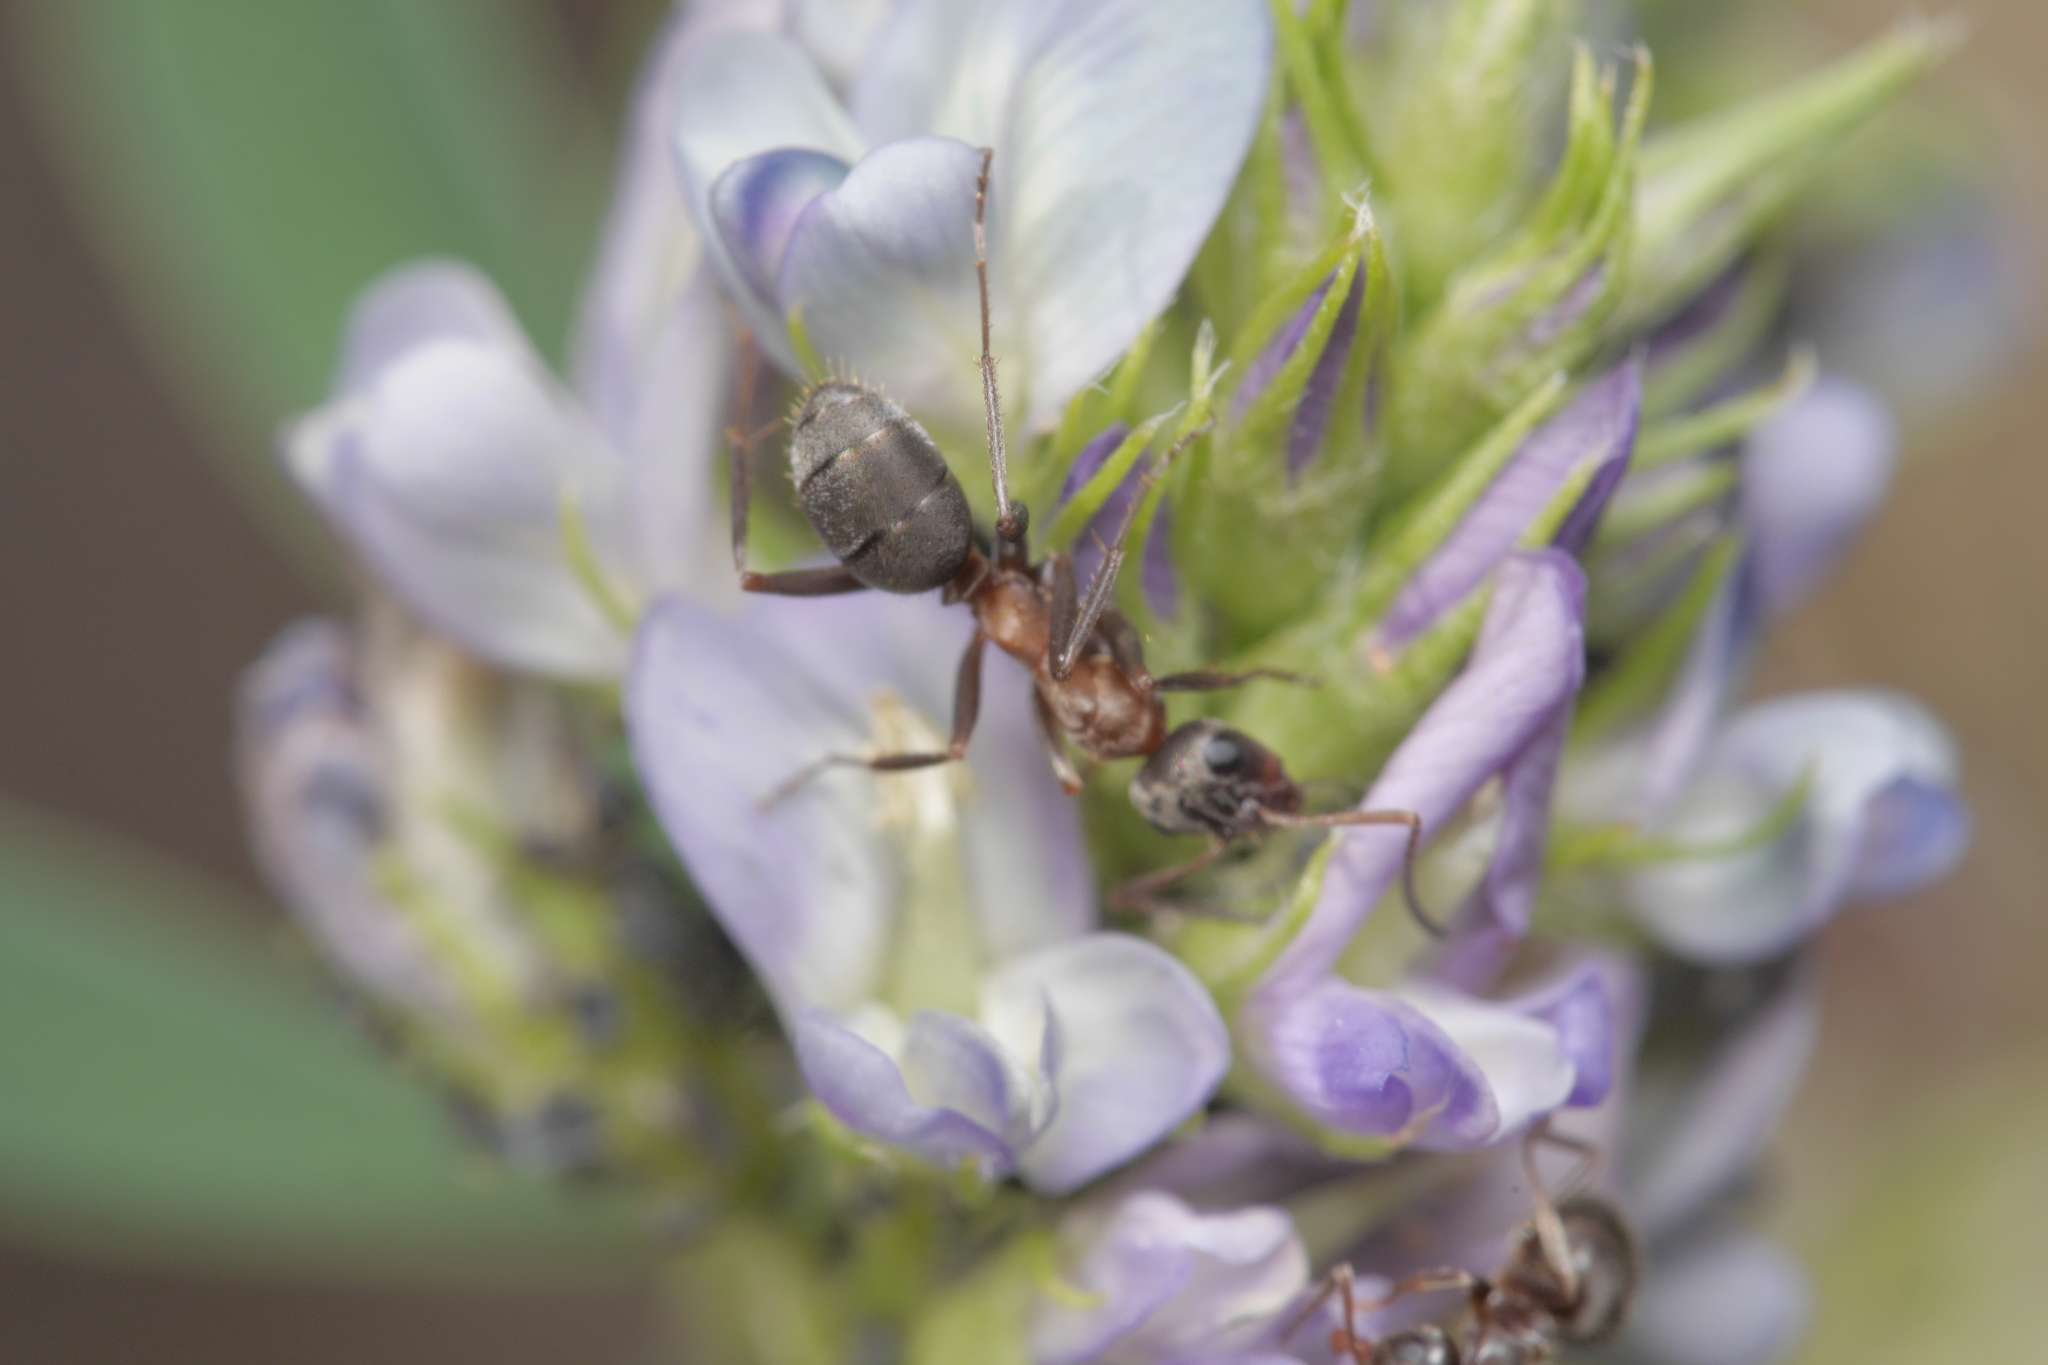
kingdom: Animalia
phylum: Arthropoda
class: Insecta
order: Hymenoptera
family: Formicidae
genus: Formica
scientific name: Formica rufibarbis
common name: Red barbed ant
